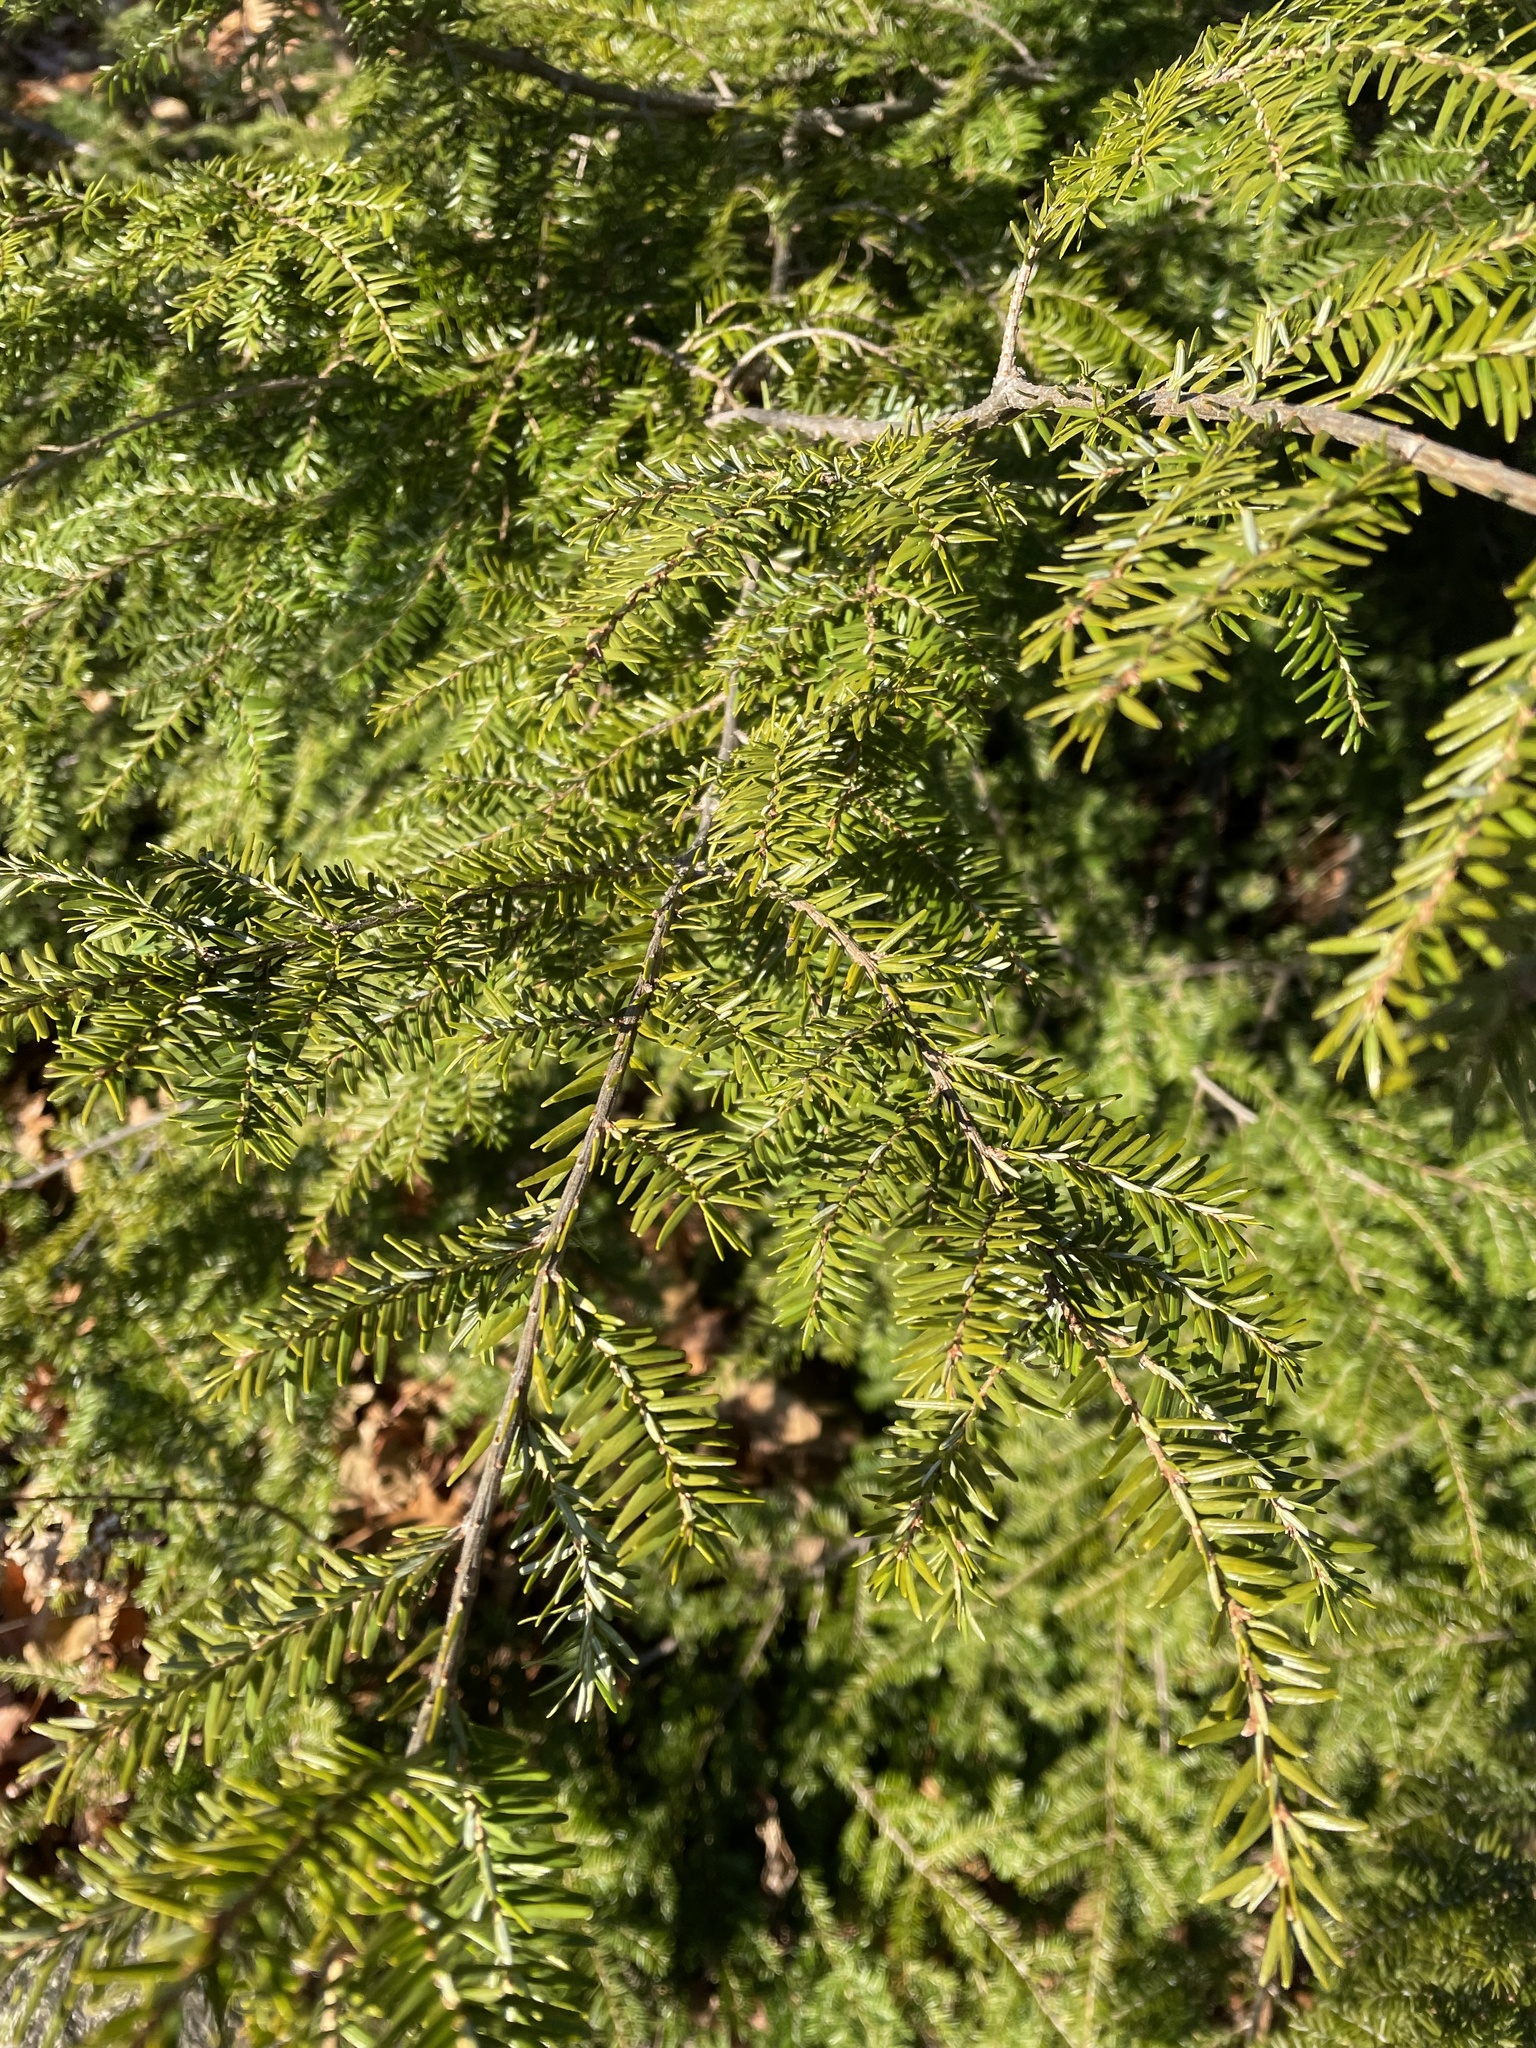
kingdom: Plantae
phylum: Tracheophyta
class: Pinopsida
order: Pinales
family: Pinaceae
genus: Tsuga
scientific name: Tsuga canadensis
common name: Eastern hemlock
